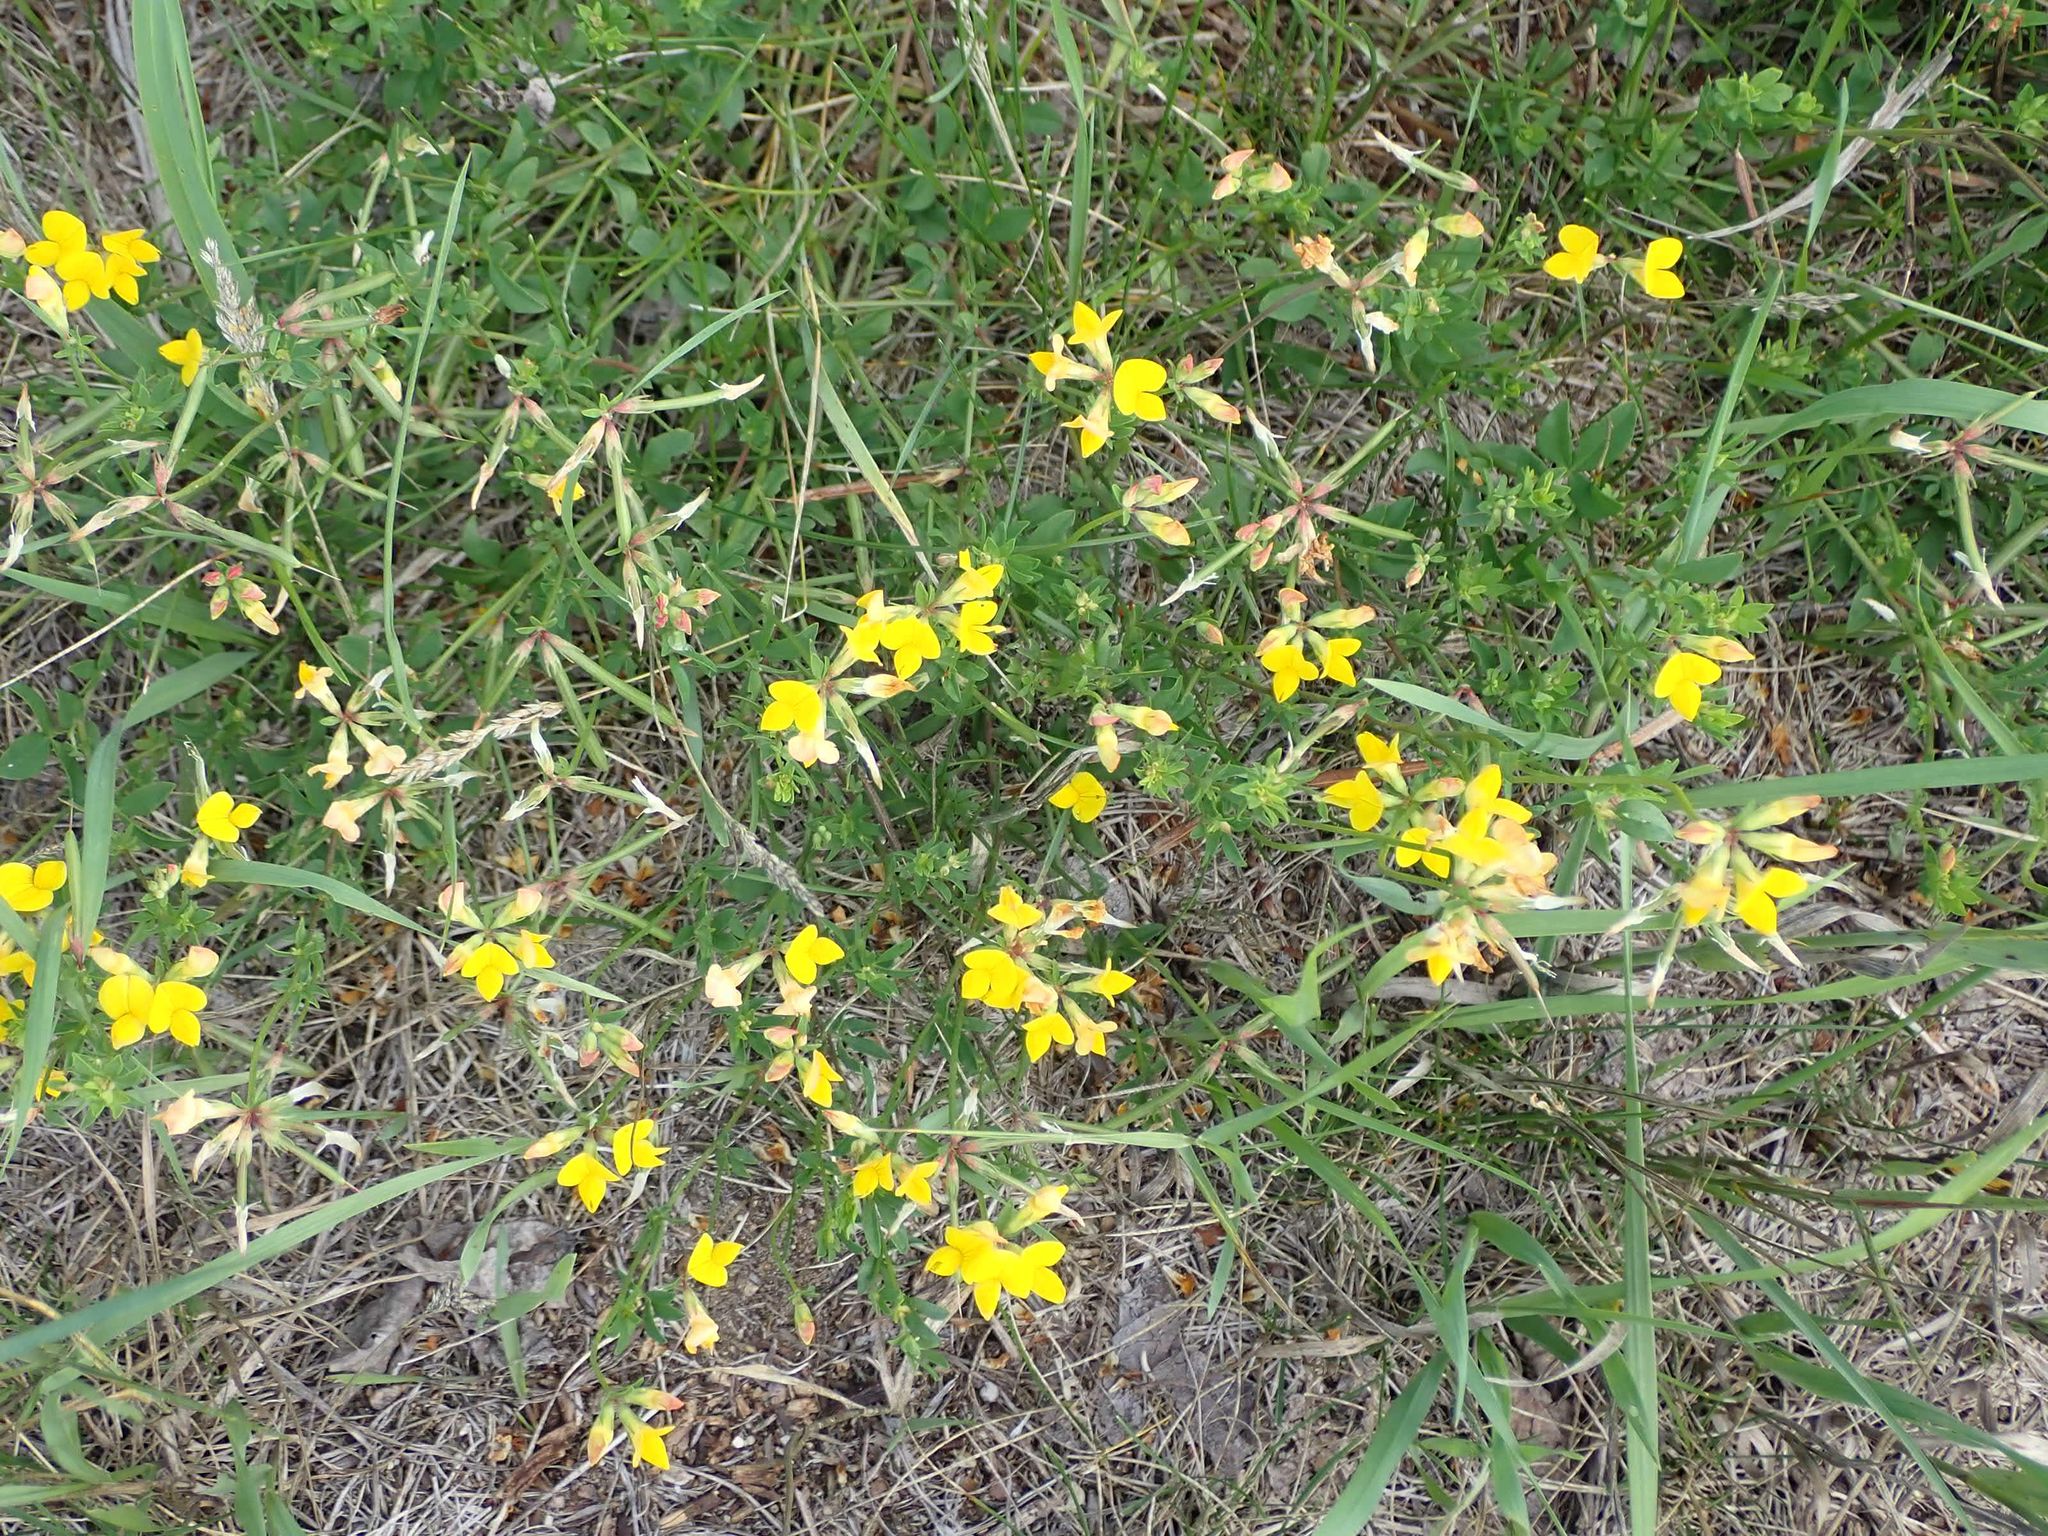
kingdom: Plantae
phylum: Tracheophyta
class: Magnoliopsida
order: Fabales
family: Fabaceae
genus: Lotus
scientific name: Lotus corniculatus
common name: Common bird's-foot-trefoil
